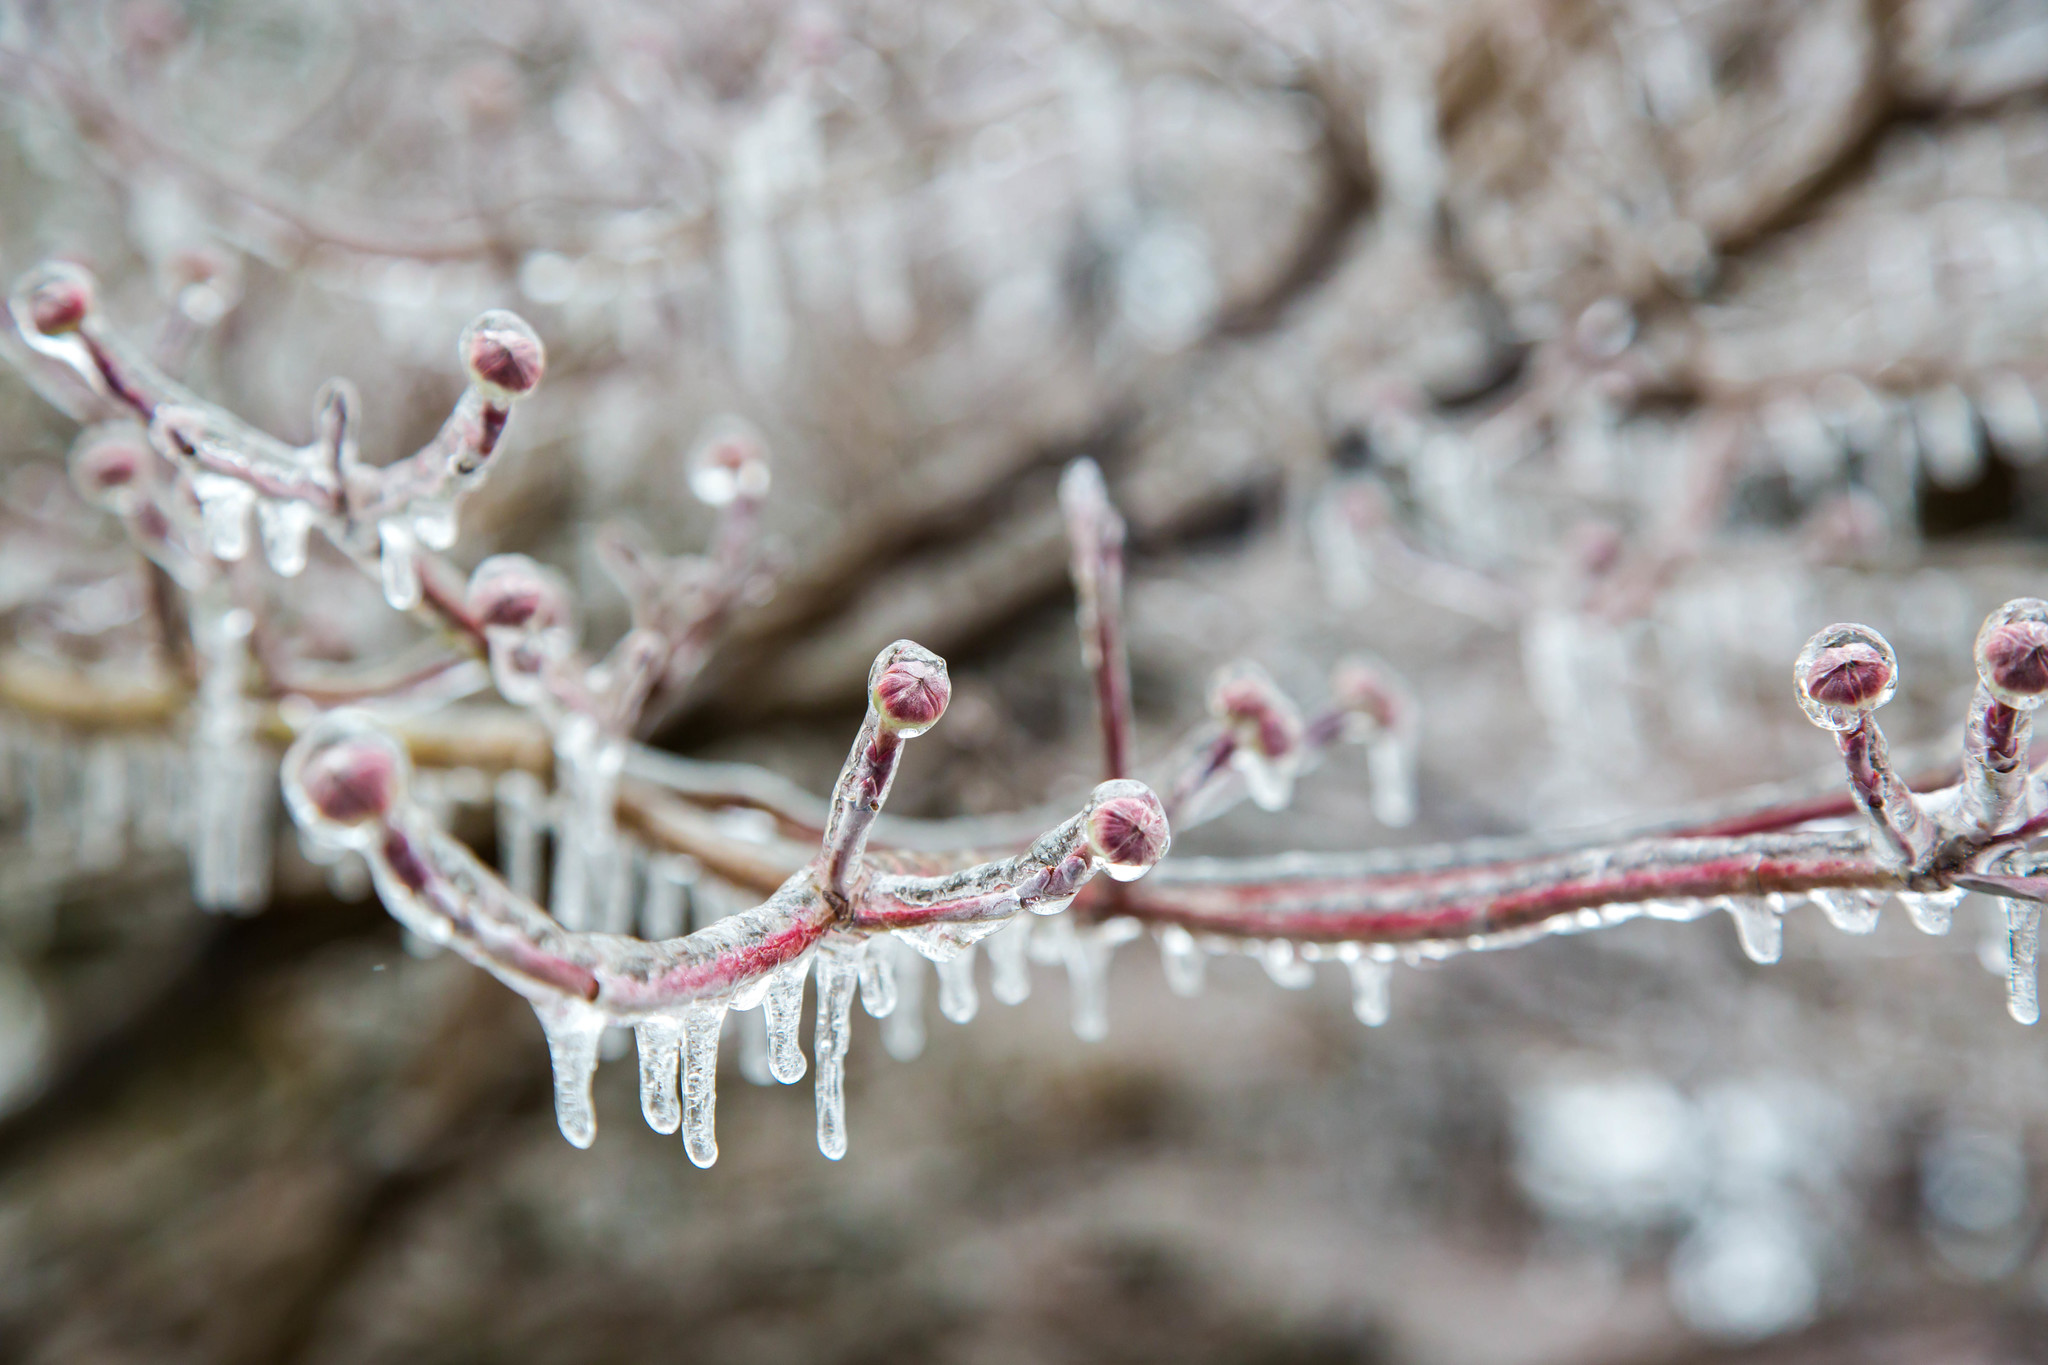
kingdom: Plantae
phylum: Tracheophyta
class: Magnoliopsida
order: Cornales
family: Cornaceae
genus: Cornus
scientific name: Cornus florida
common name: Flowering dogwood
